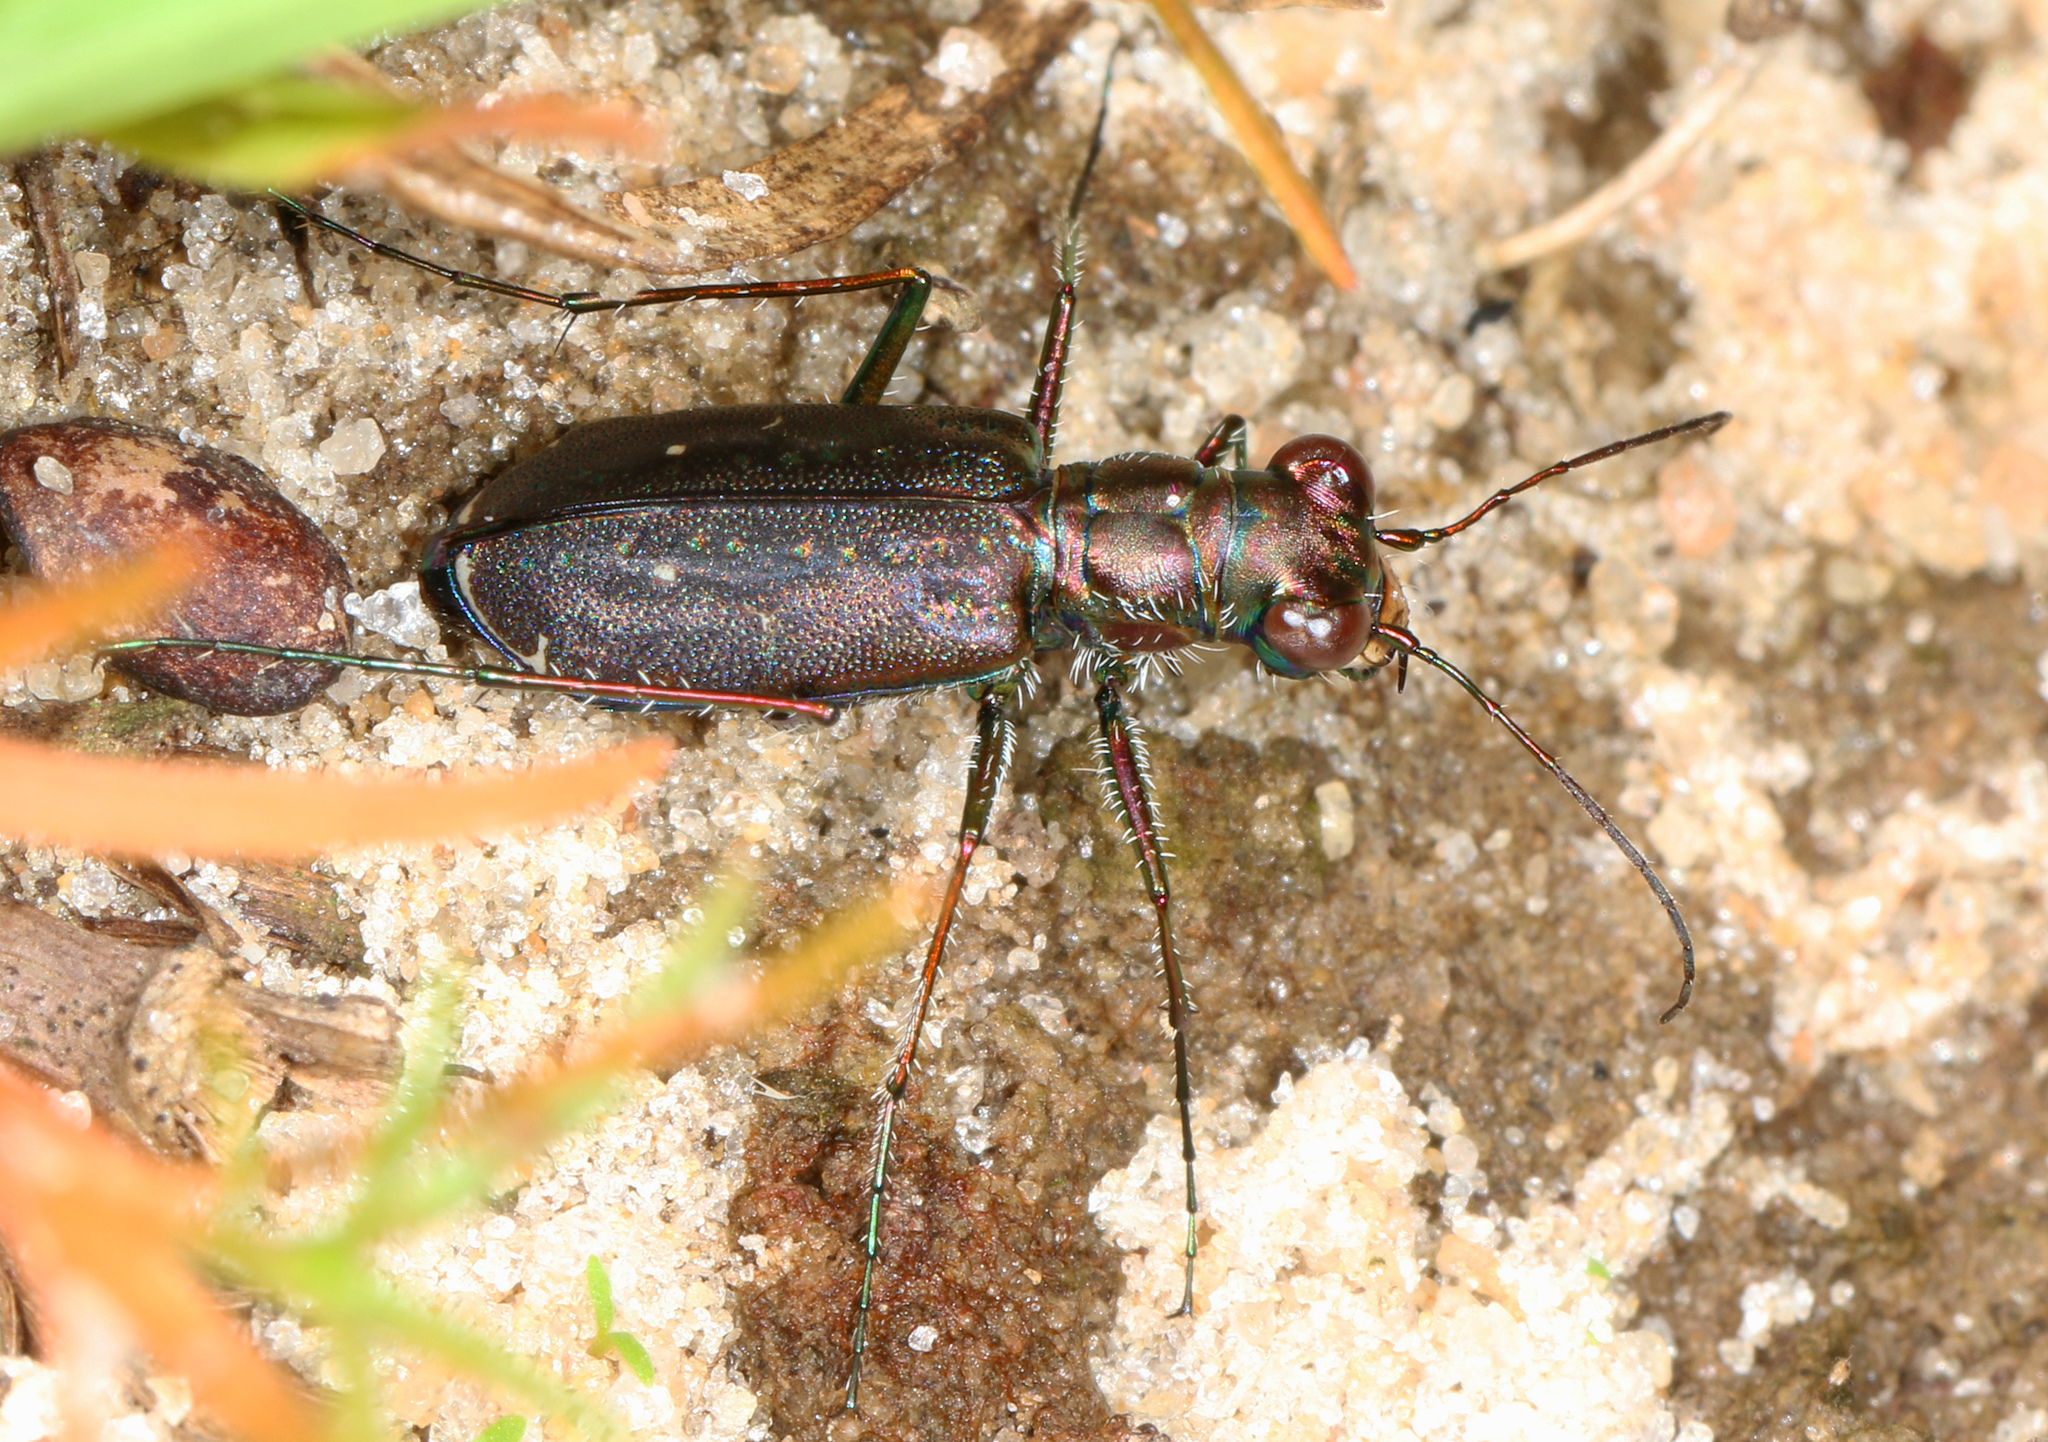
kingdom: Animalia
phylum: Arthropoda
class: Insecta
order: Coleoptera
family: Carabidae
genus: Cicindela
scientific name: Cicindela punctulata
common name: Punctured tiger beetle
